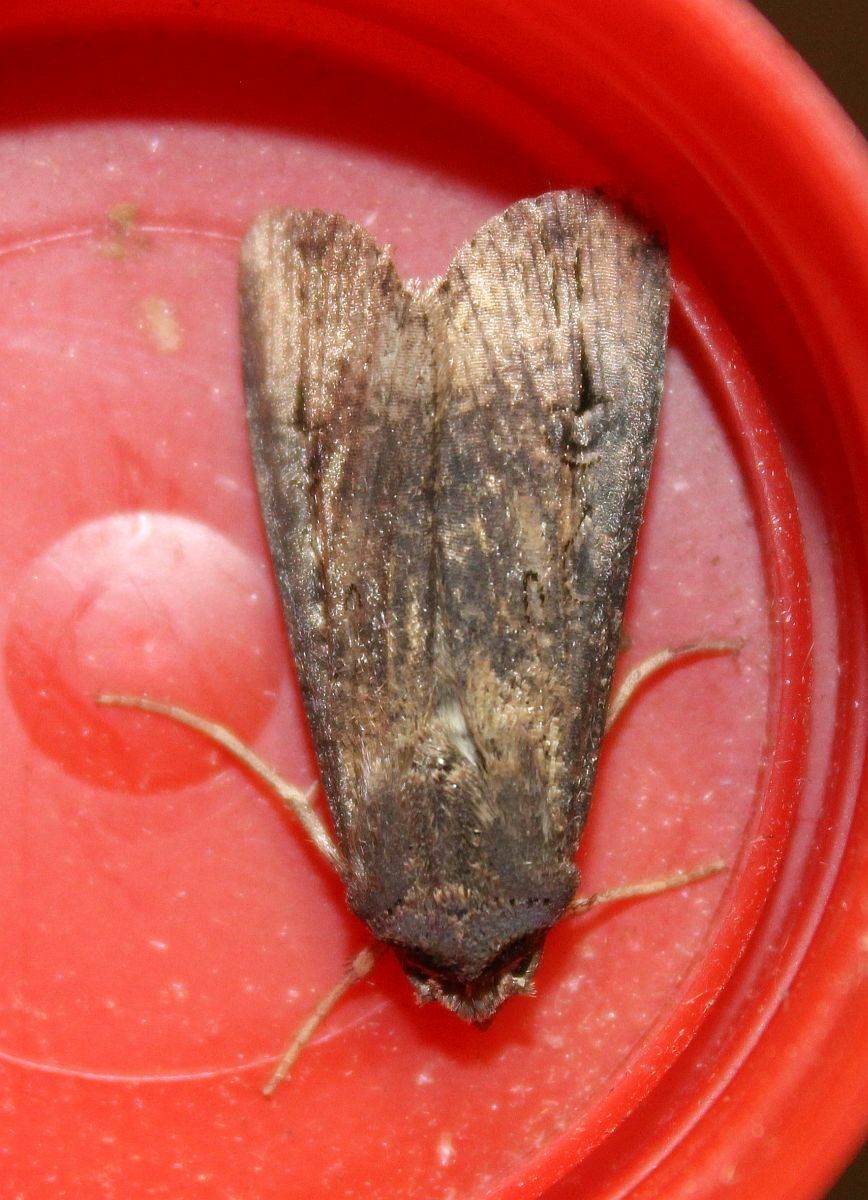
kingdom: Animalia
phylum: Arthropoda
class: Insecta
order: Lepidoptera
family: Noctuidae
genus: Agrotis
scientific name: Agrotis ipsilon
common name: Dark sword-grass
